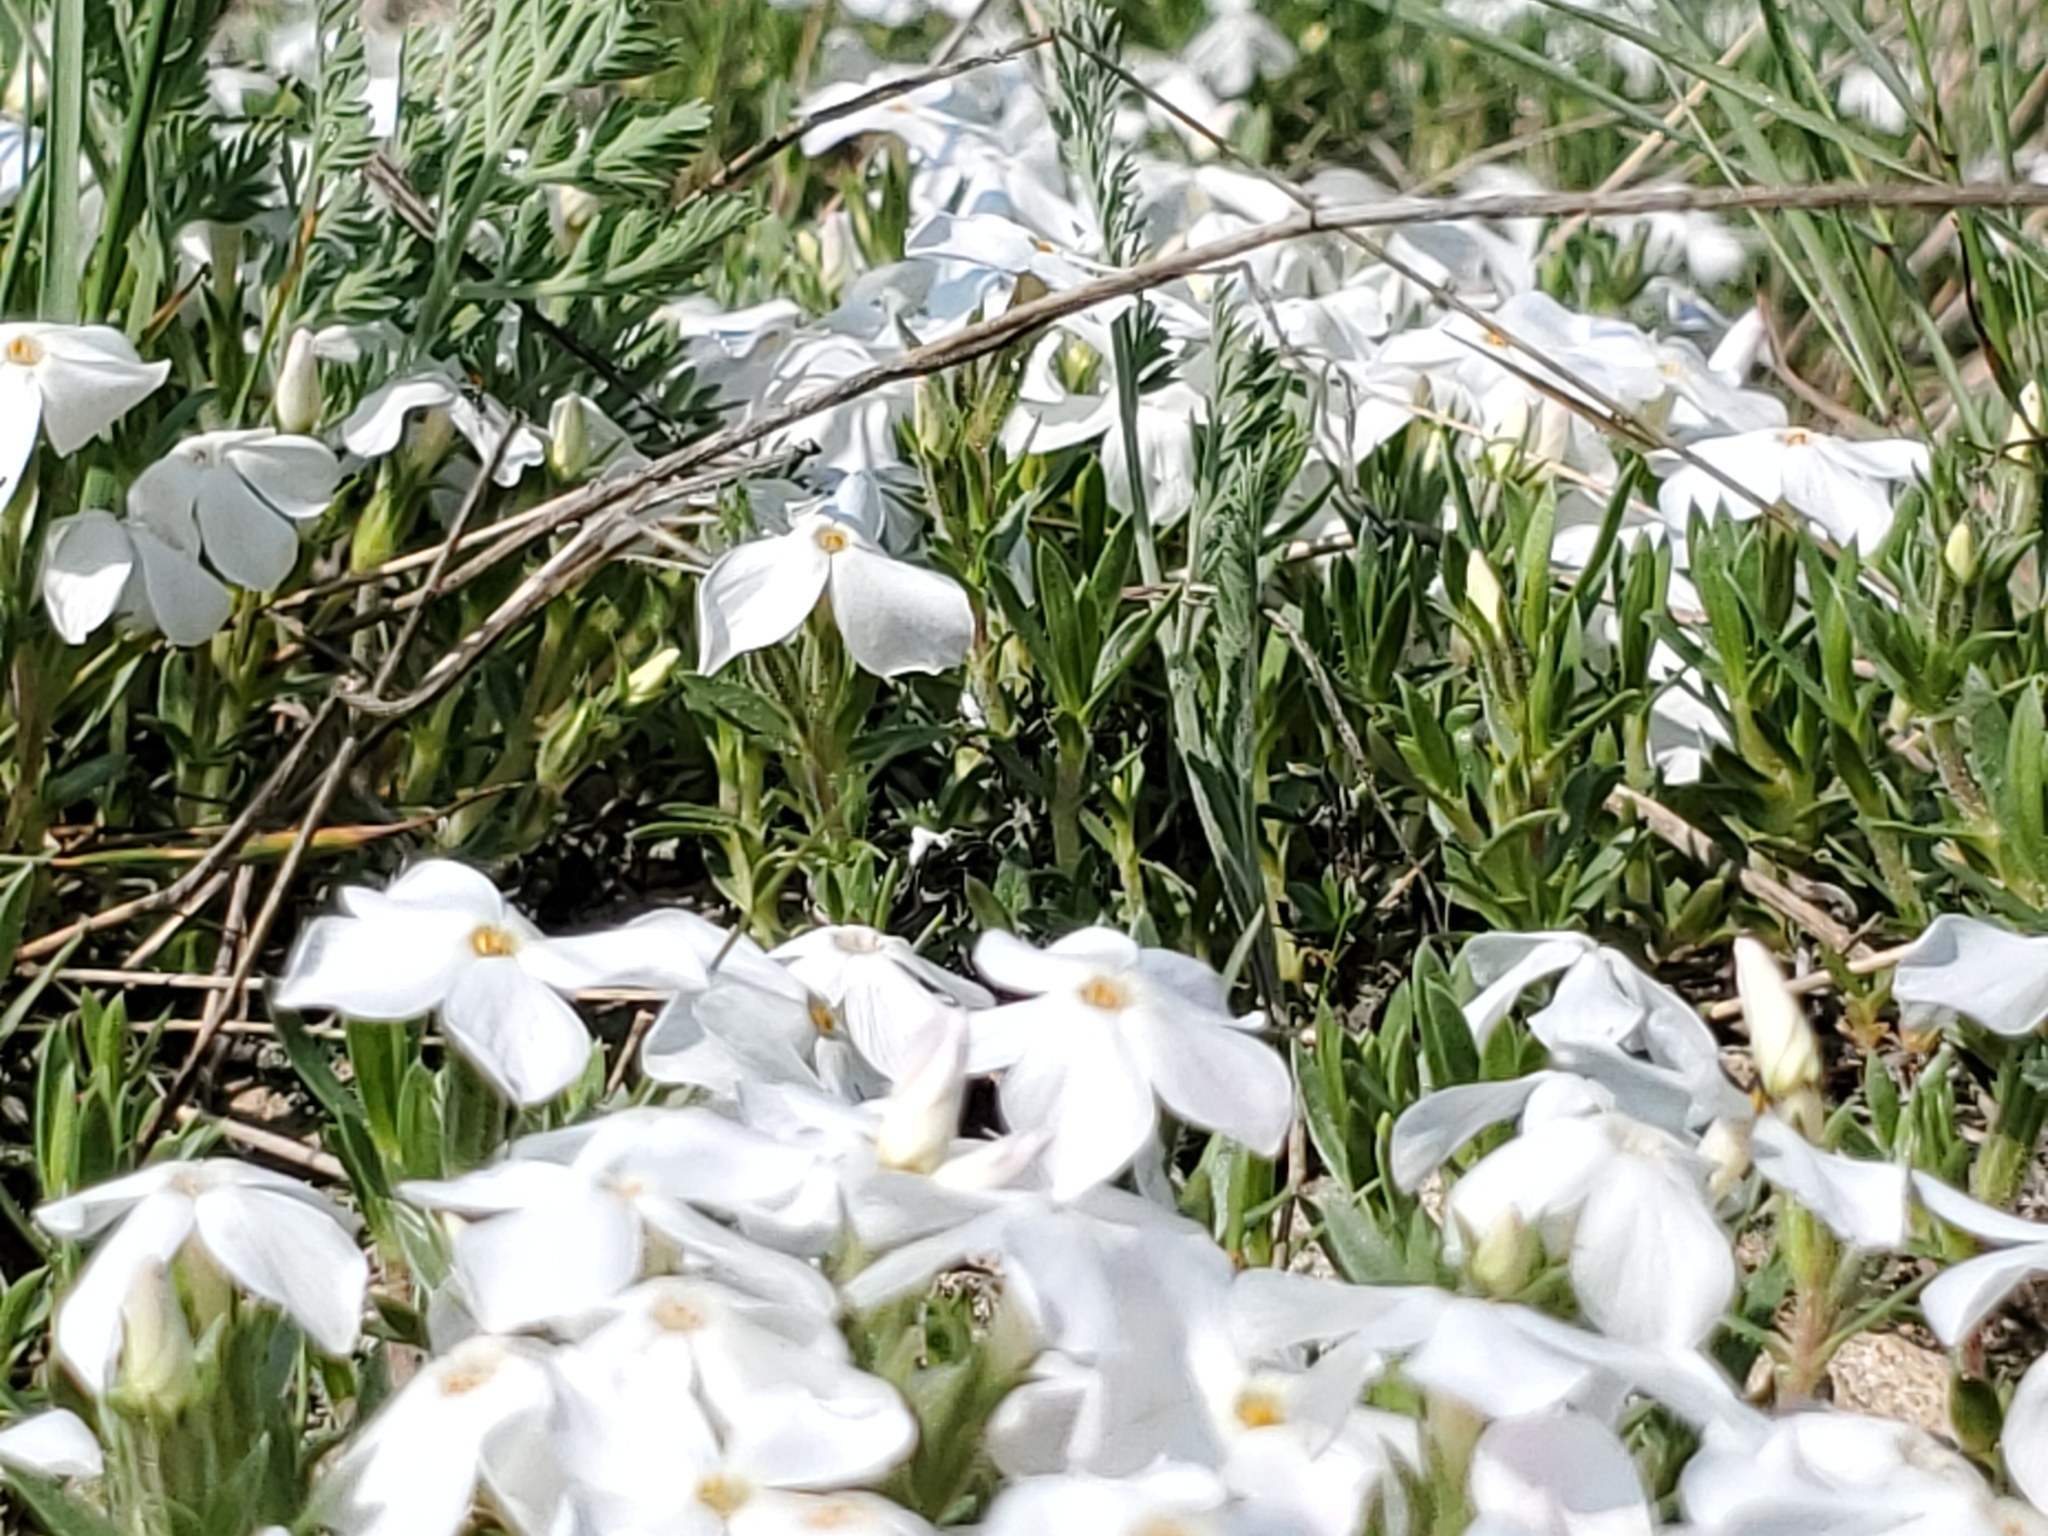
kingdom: Plantae
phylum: Tracheophyta
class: Magnoliopsida
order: Ericales
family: Polemoniaceae
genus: Phlox
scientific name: Phlox alyssifolia
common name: Blue phlox
